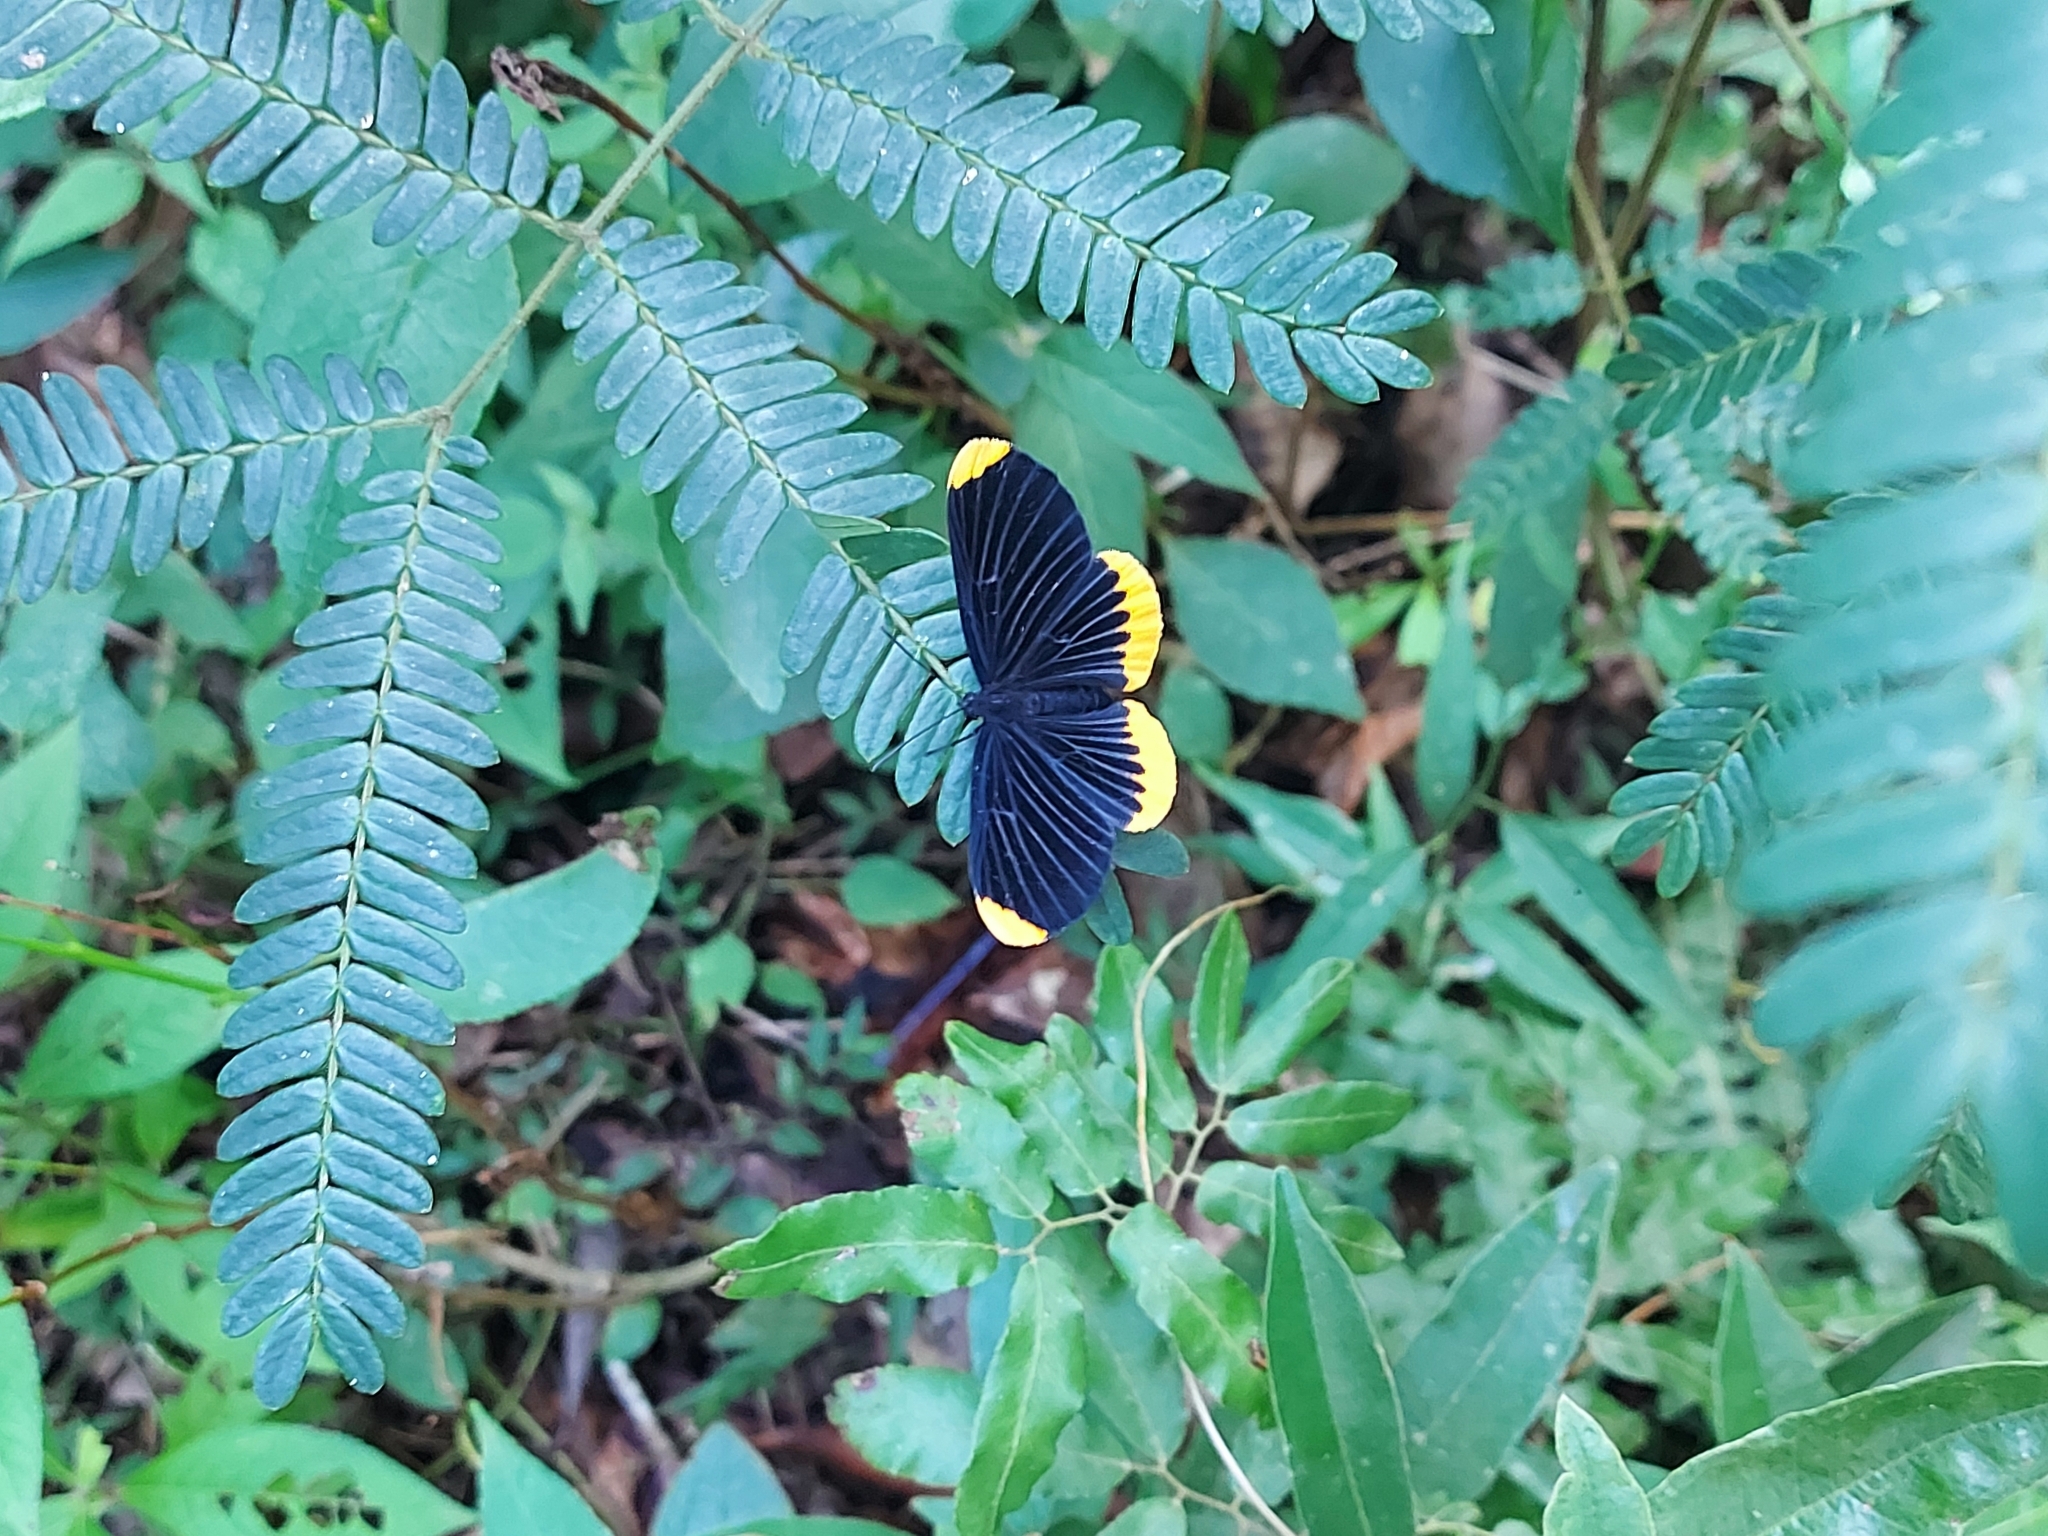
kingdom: Animalia
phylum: Arthropoda
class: Insecta
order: Lepidoptera
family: Lycaenidae
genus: Melanis
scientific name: Melanis
